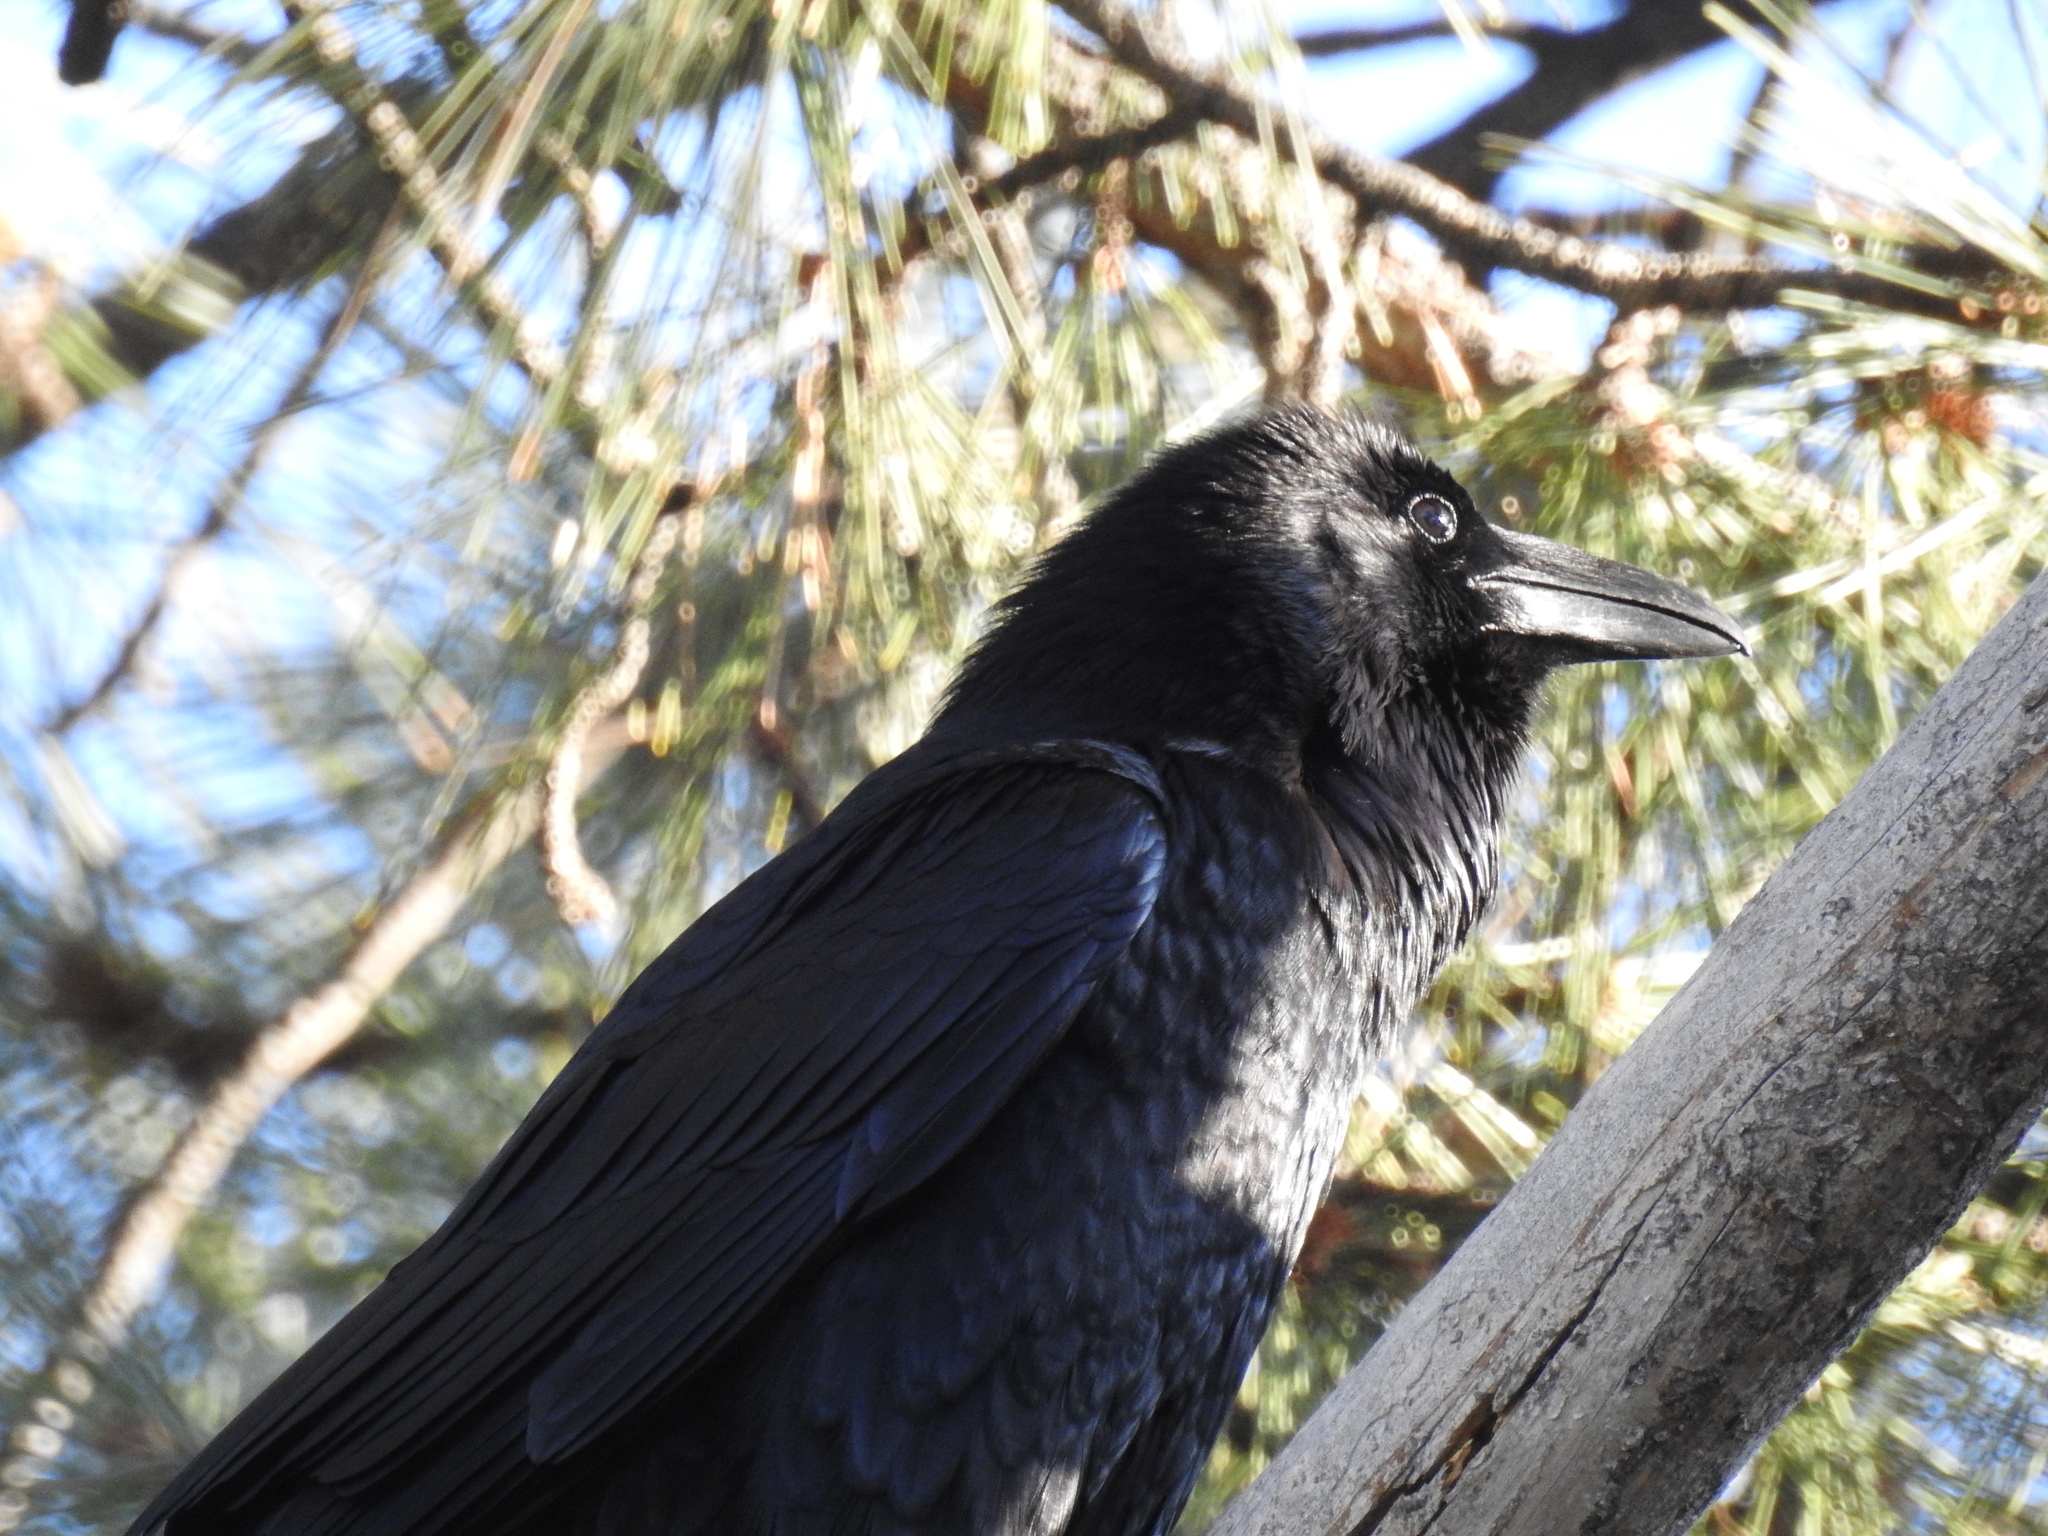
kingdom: Animalia
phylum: Chordata
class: Aves
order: Passeriformes
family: Corvidae
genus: Corvus
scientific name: Corvus corax
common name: Common raven
